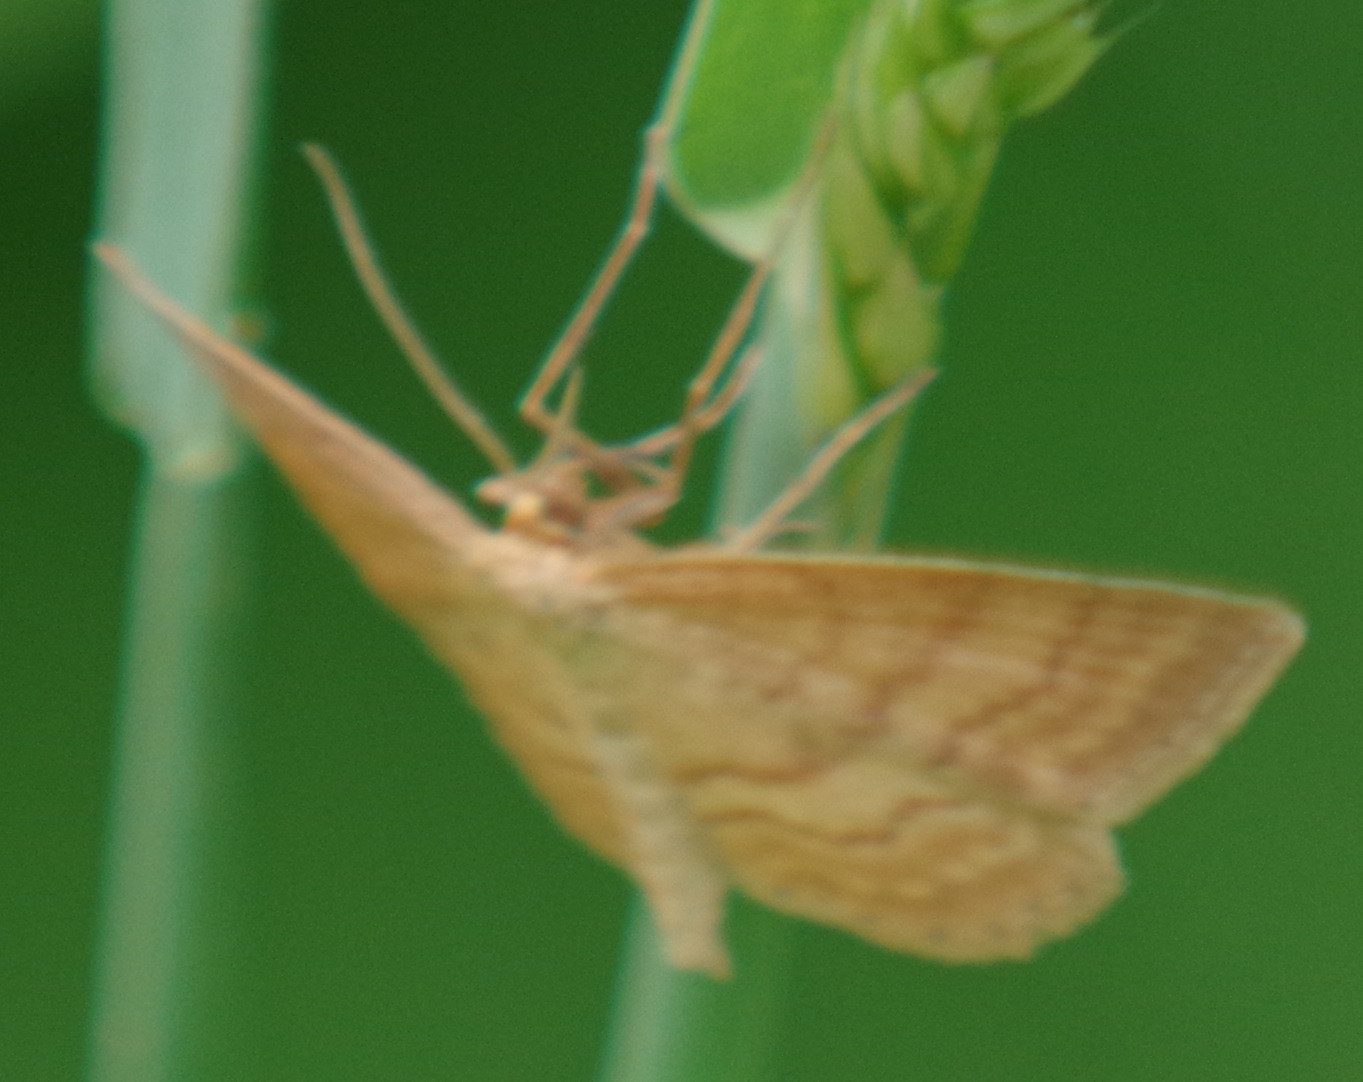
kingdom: Animalia
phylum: Arthropoda
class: Insecta
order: Lepidoptera
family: Geometridae
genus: Idaea
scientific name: Idaea ochrata
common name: Bright wave
